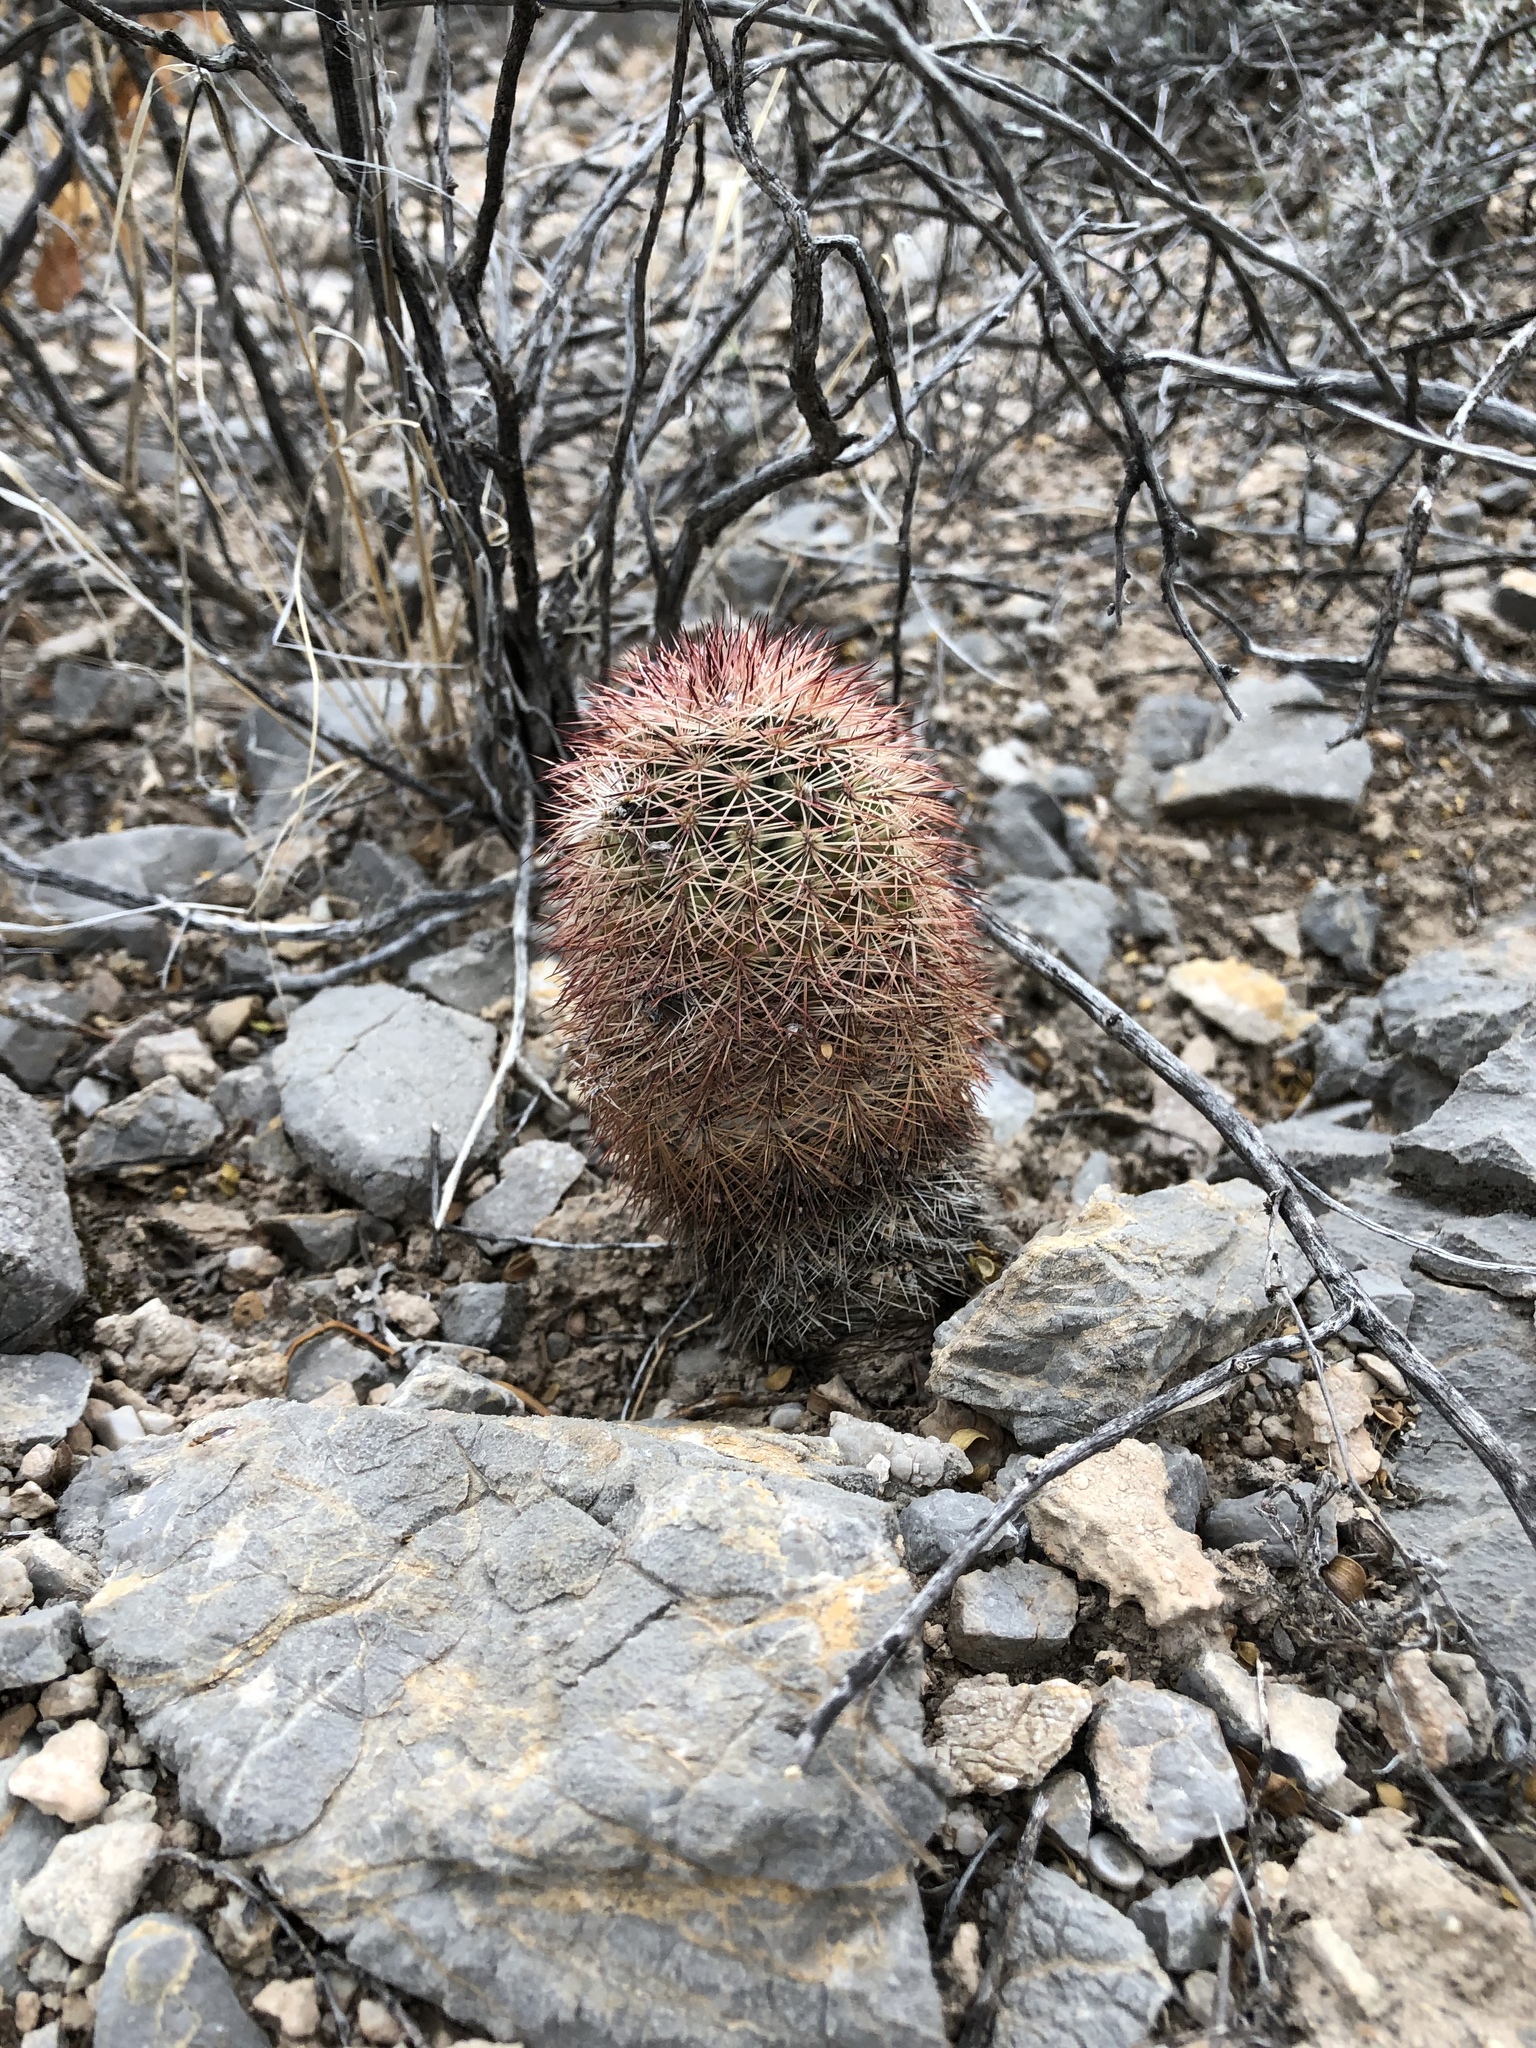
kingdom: Plantae
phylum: Tracheophyta
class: Magnoliopsida
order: Caryophyllales
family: Cactaceae
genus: Echinocereus
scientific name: Echinocereus dasyacanthus
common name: Spiny hedgehog cactus
